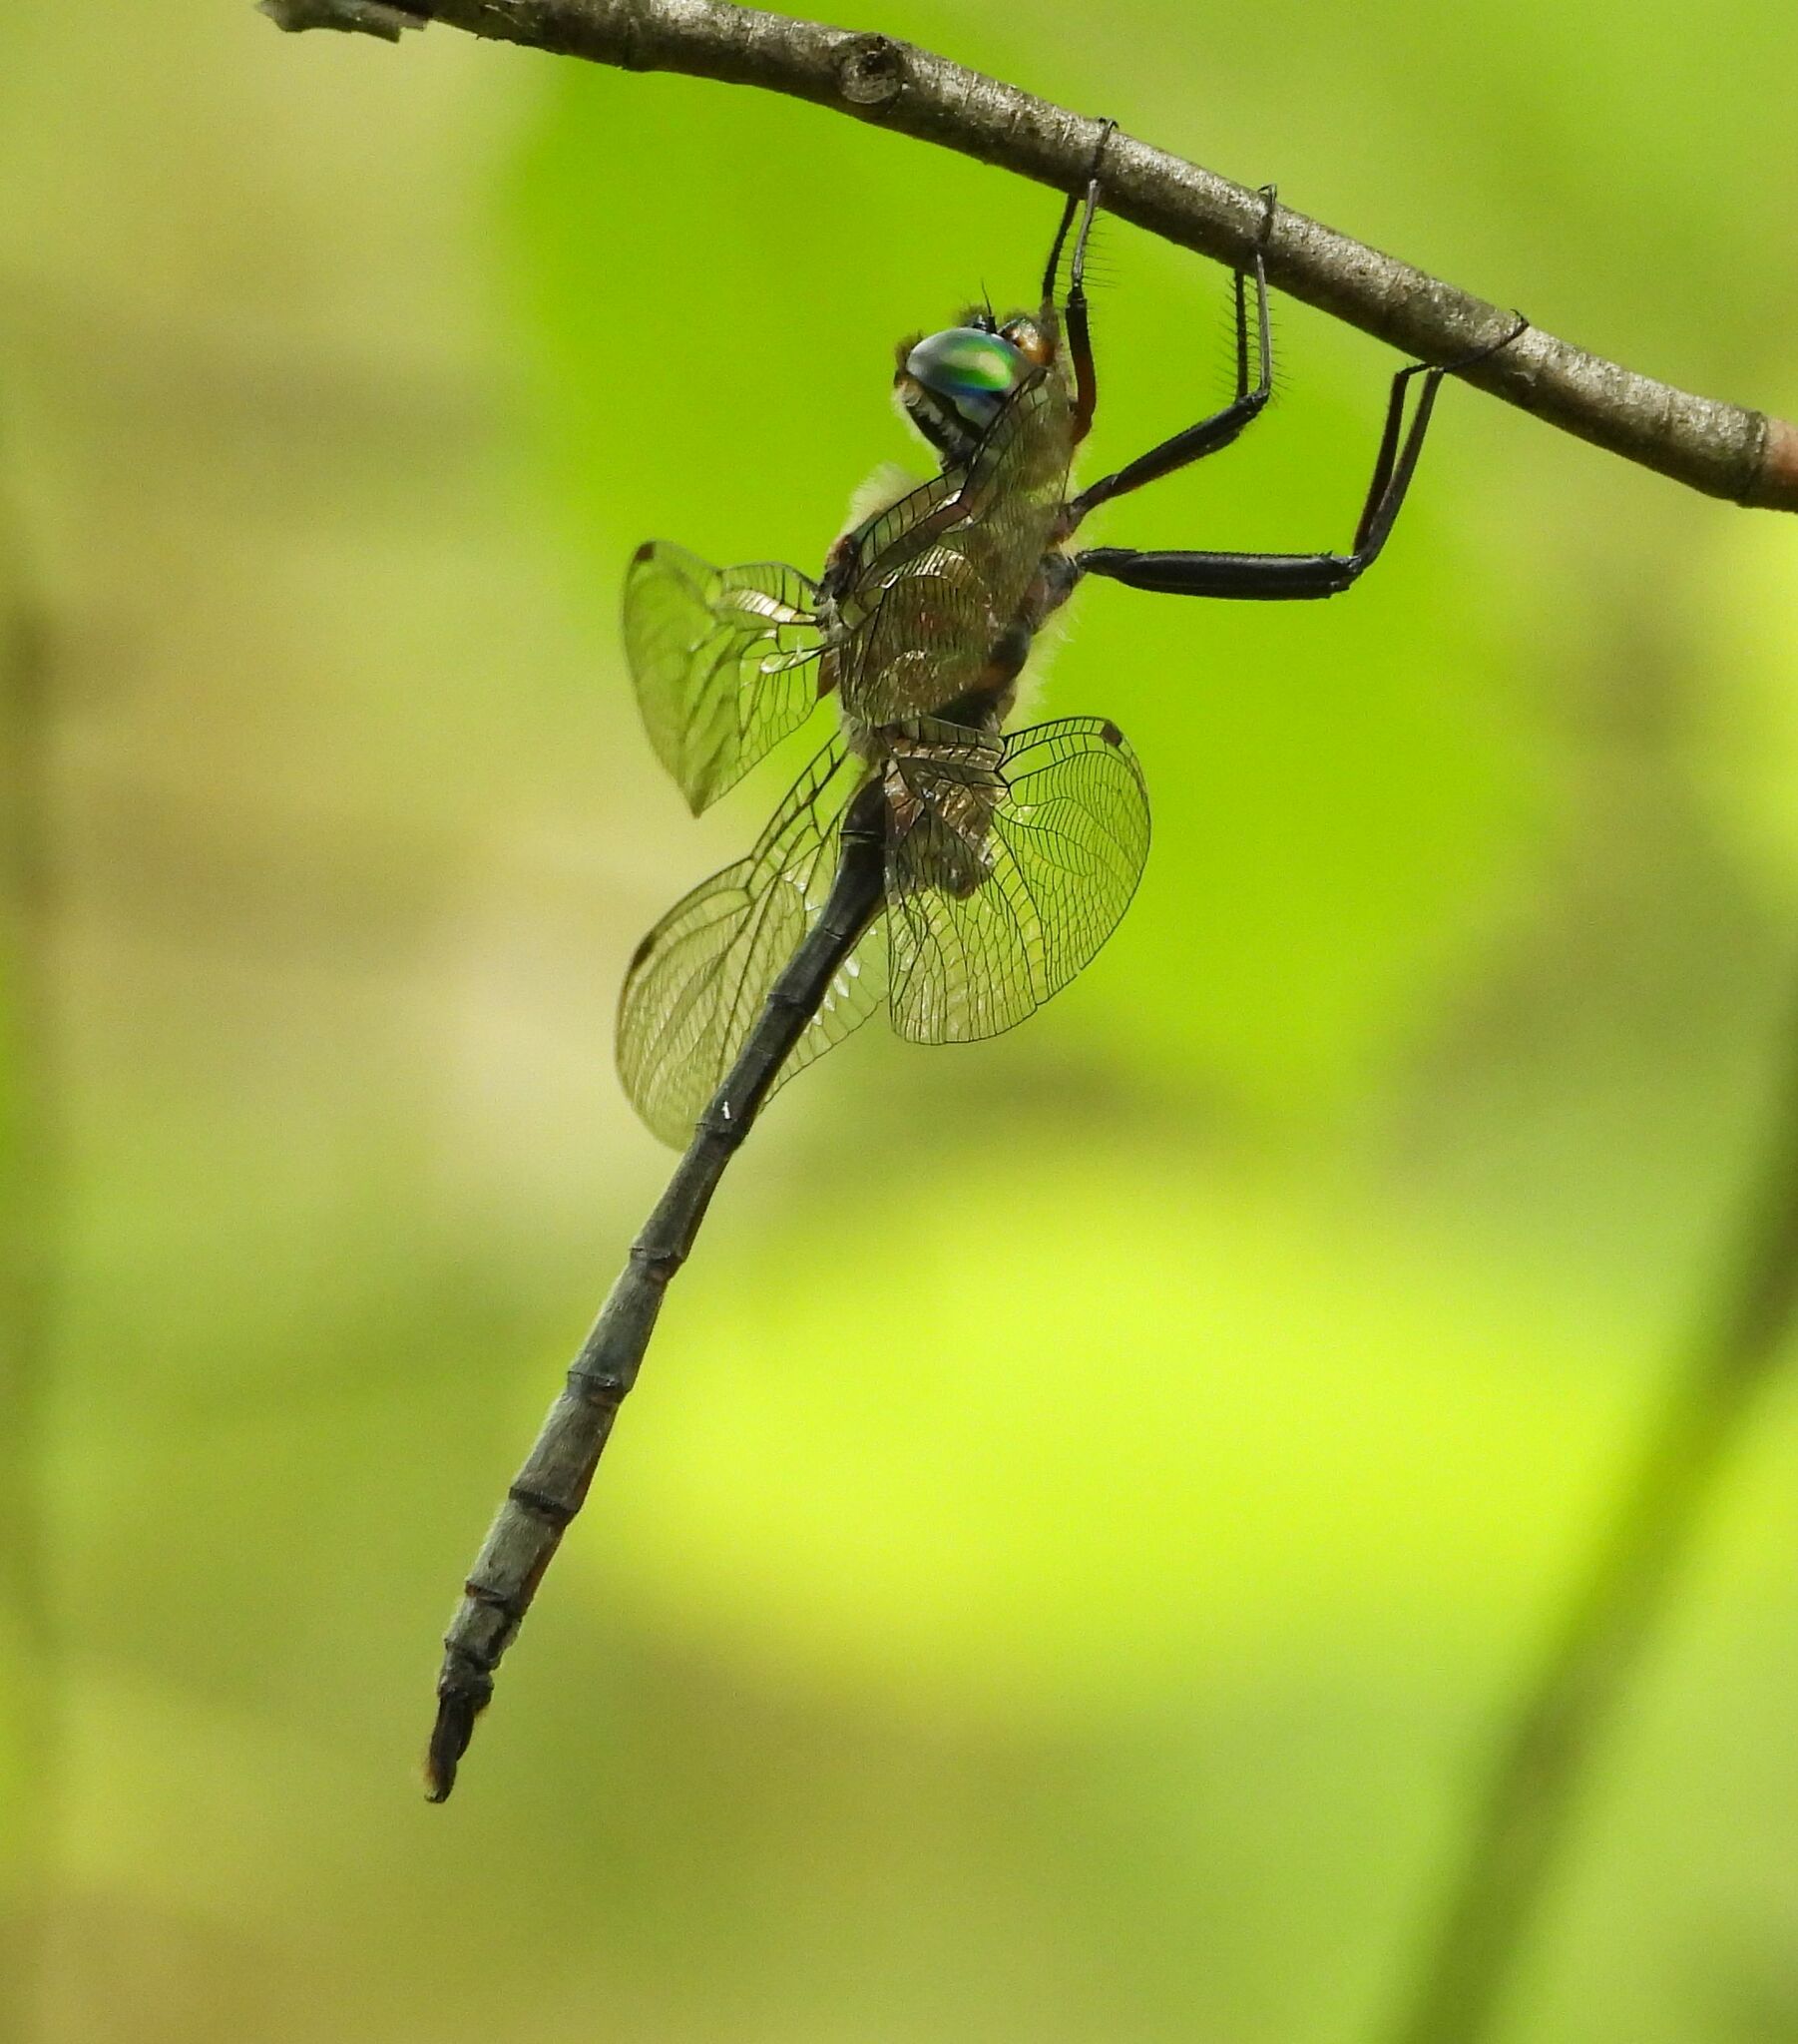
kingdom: Animalia
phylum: Arthropoda
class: Insecta
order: Odonata
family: Corduliidae
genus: Somatochlora
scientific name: Somatochlora williamsoni
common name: Williamson's emerald
